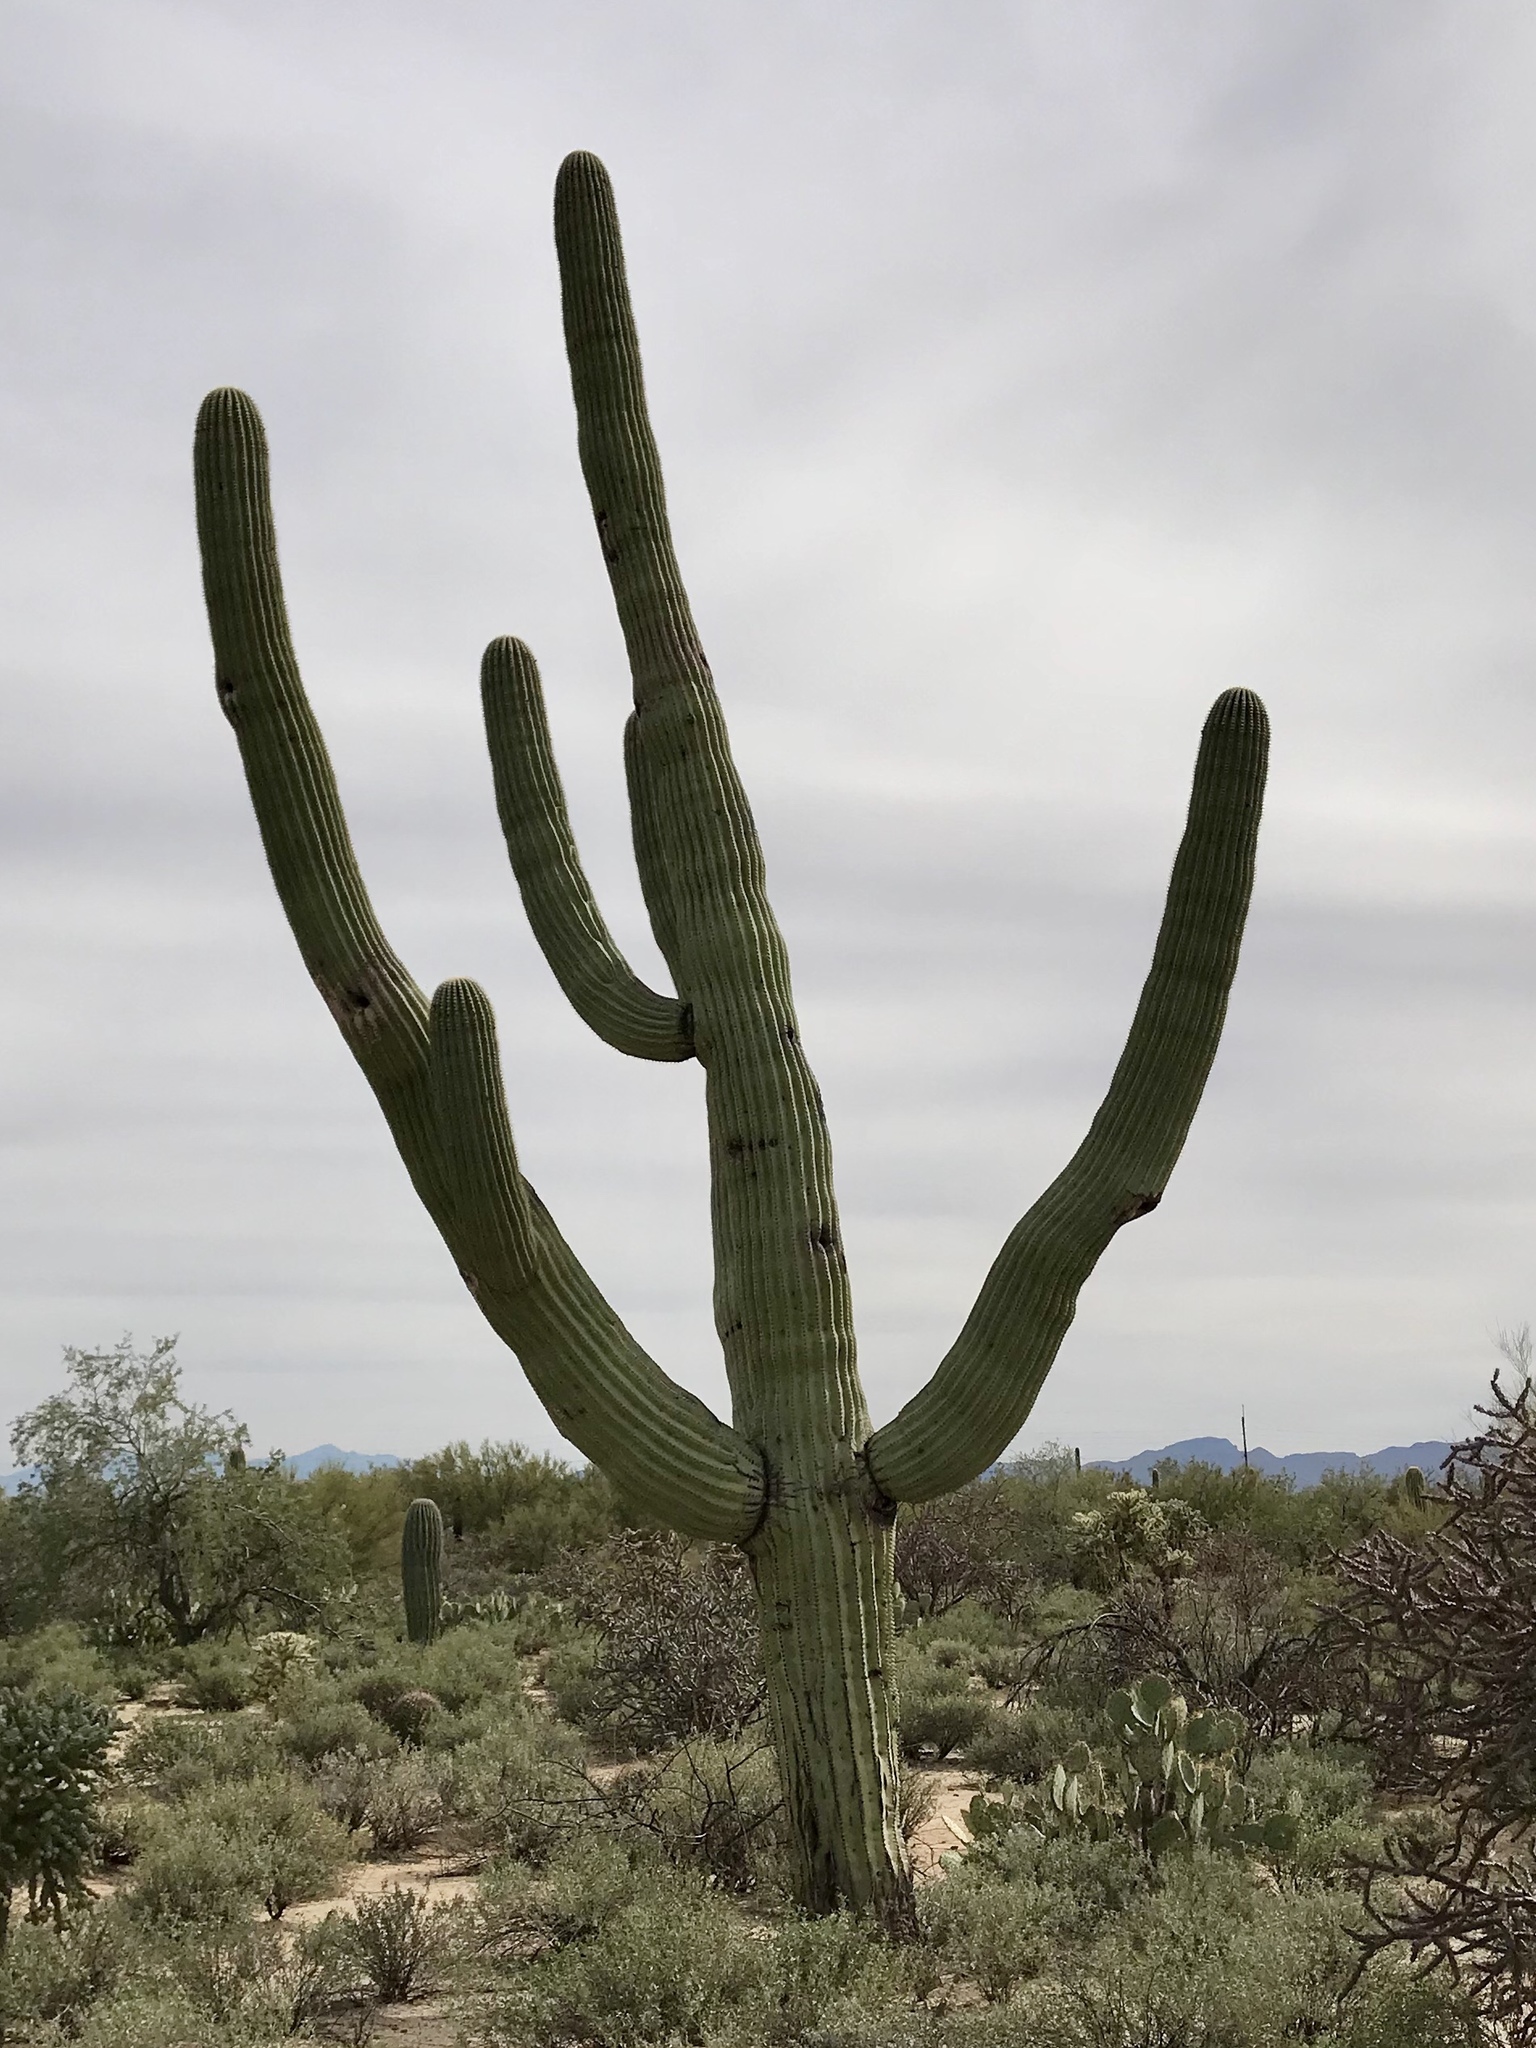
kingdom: Plantae
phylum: Tracheophyta
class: Magnoliopsida
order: Caryophyllales
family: Cactaceae
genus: Carnegiea
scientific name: Carnegiea gigantea
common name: Saguaro
